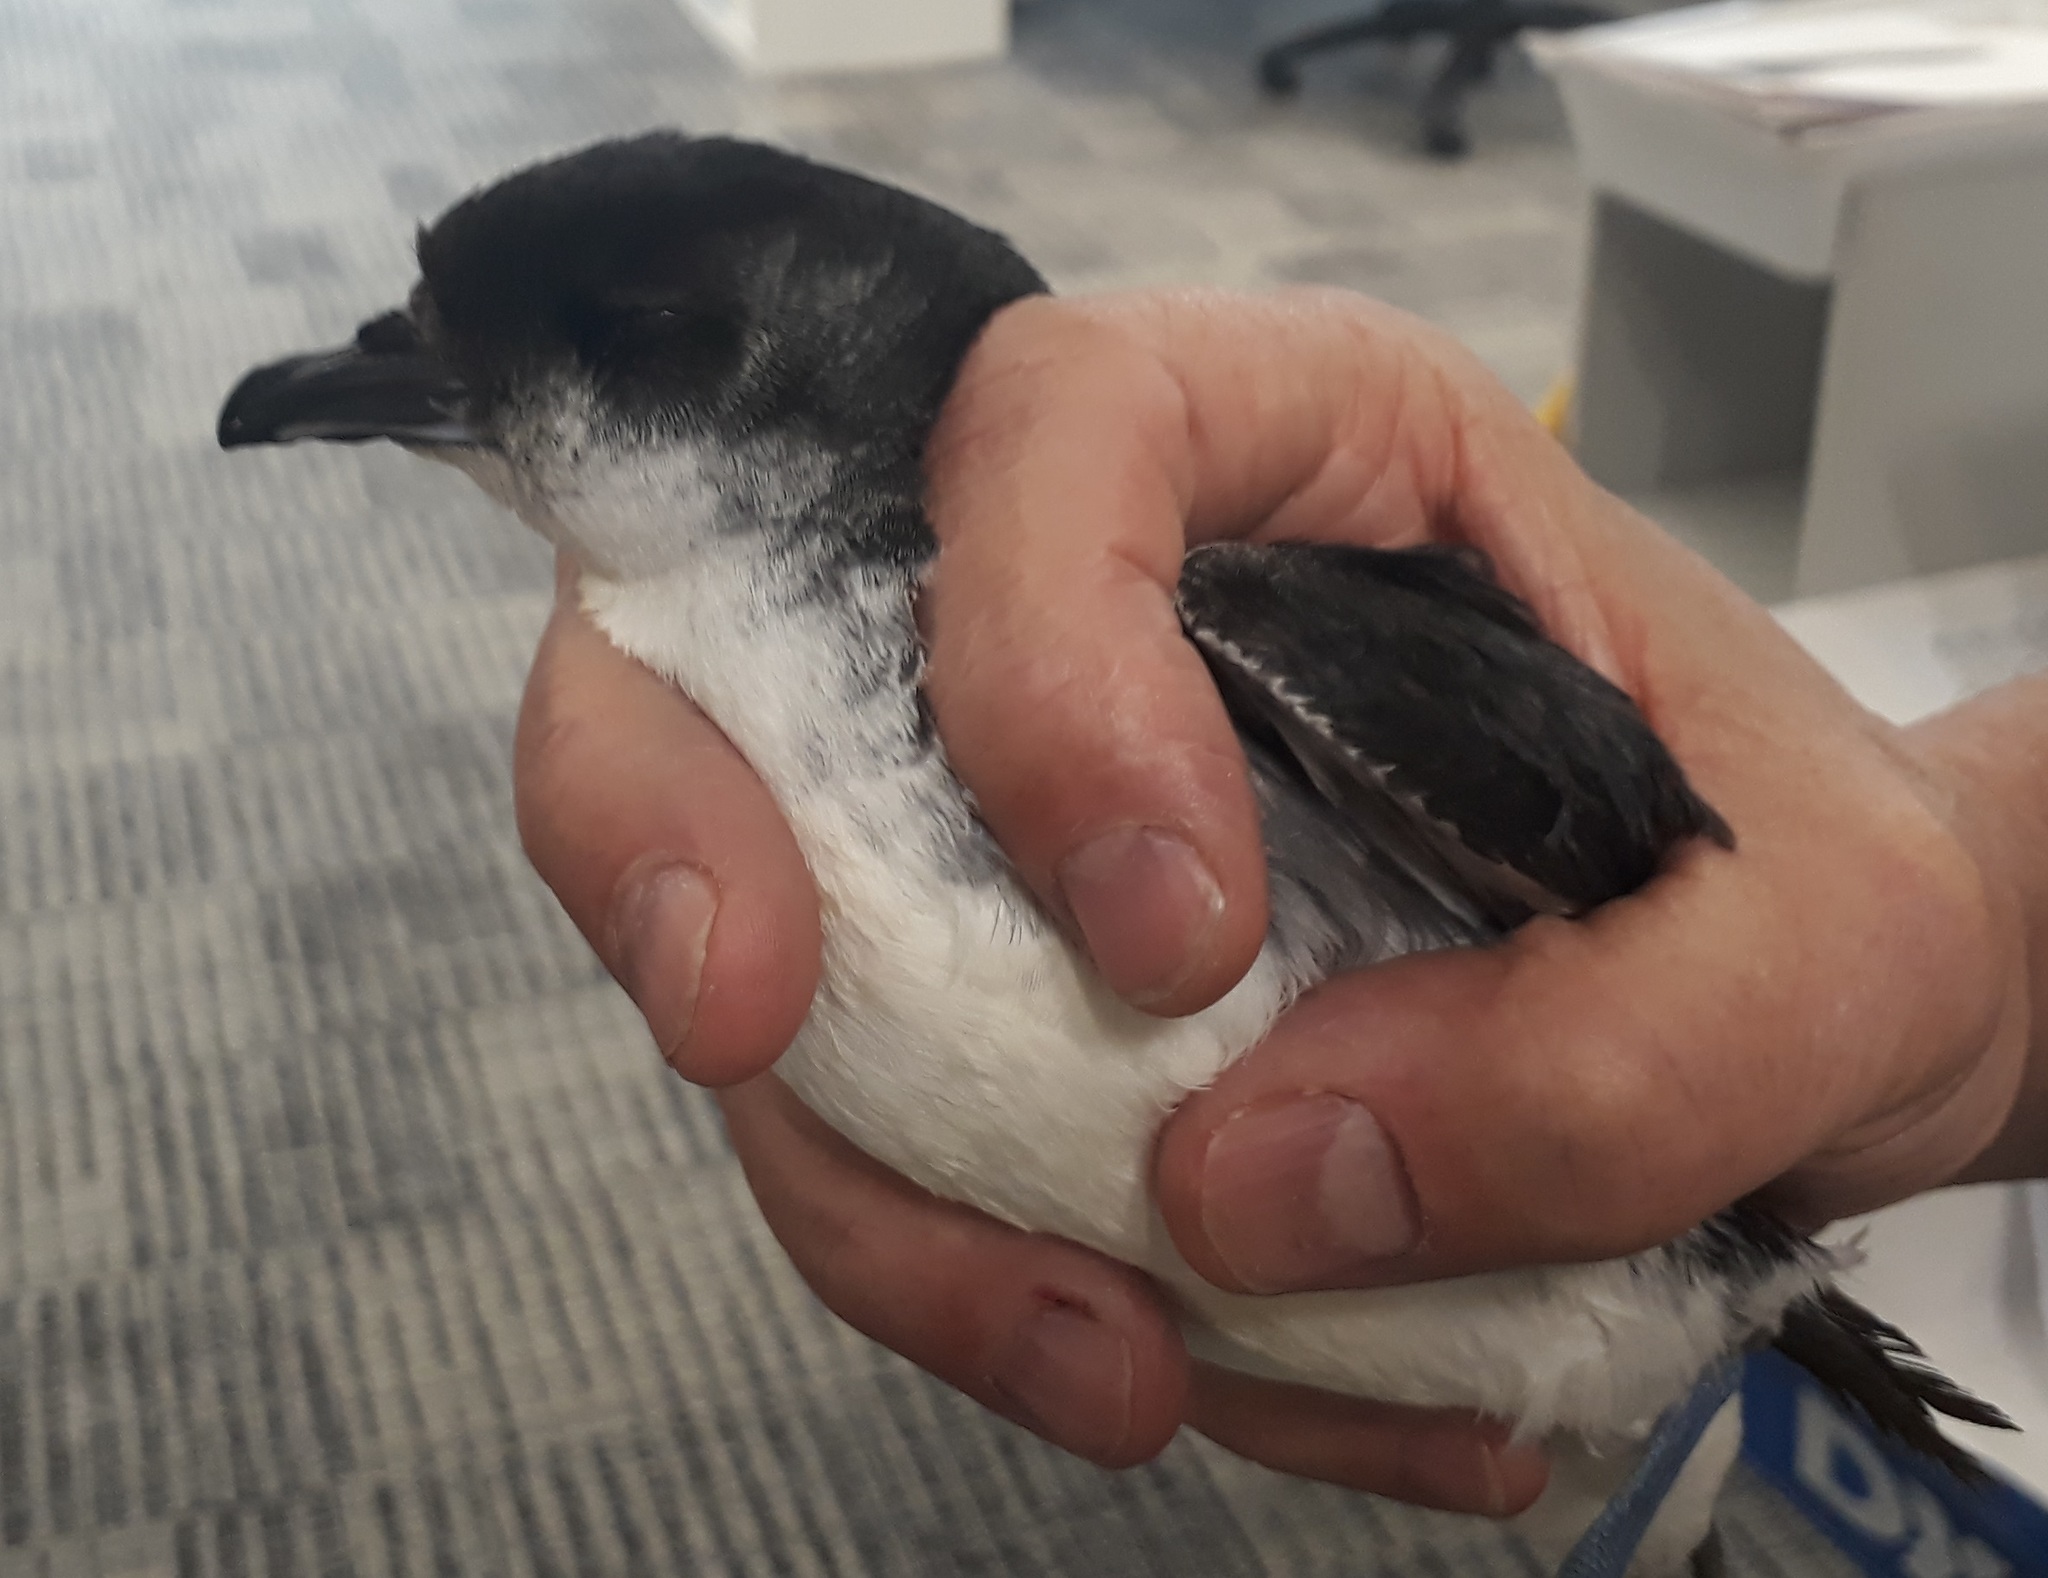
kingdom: Animalia
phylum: Chordata
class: Aves
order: Procellariiformes
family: Pelecanoididae
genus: Pelecanoides
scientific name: Pelecanoides urinatrix
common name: Common diving-petrel
